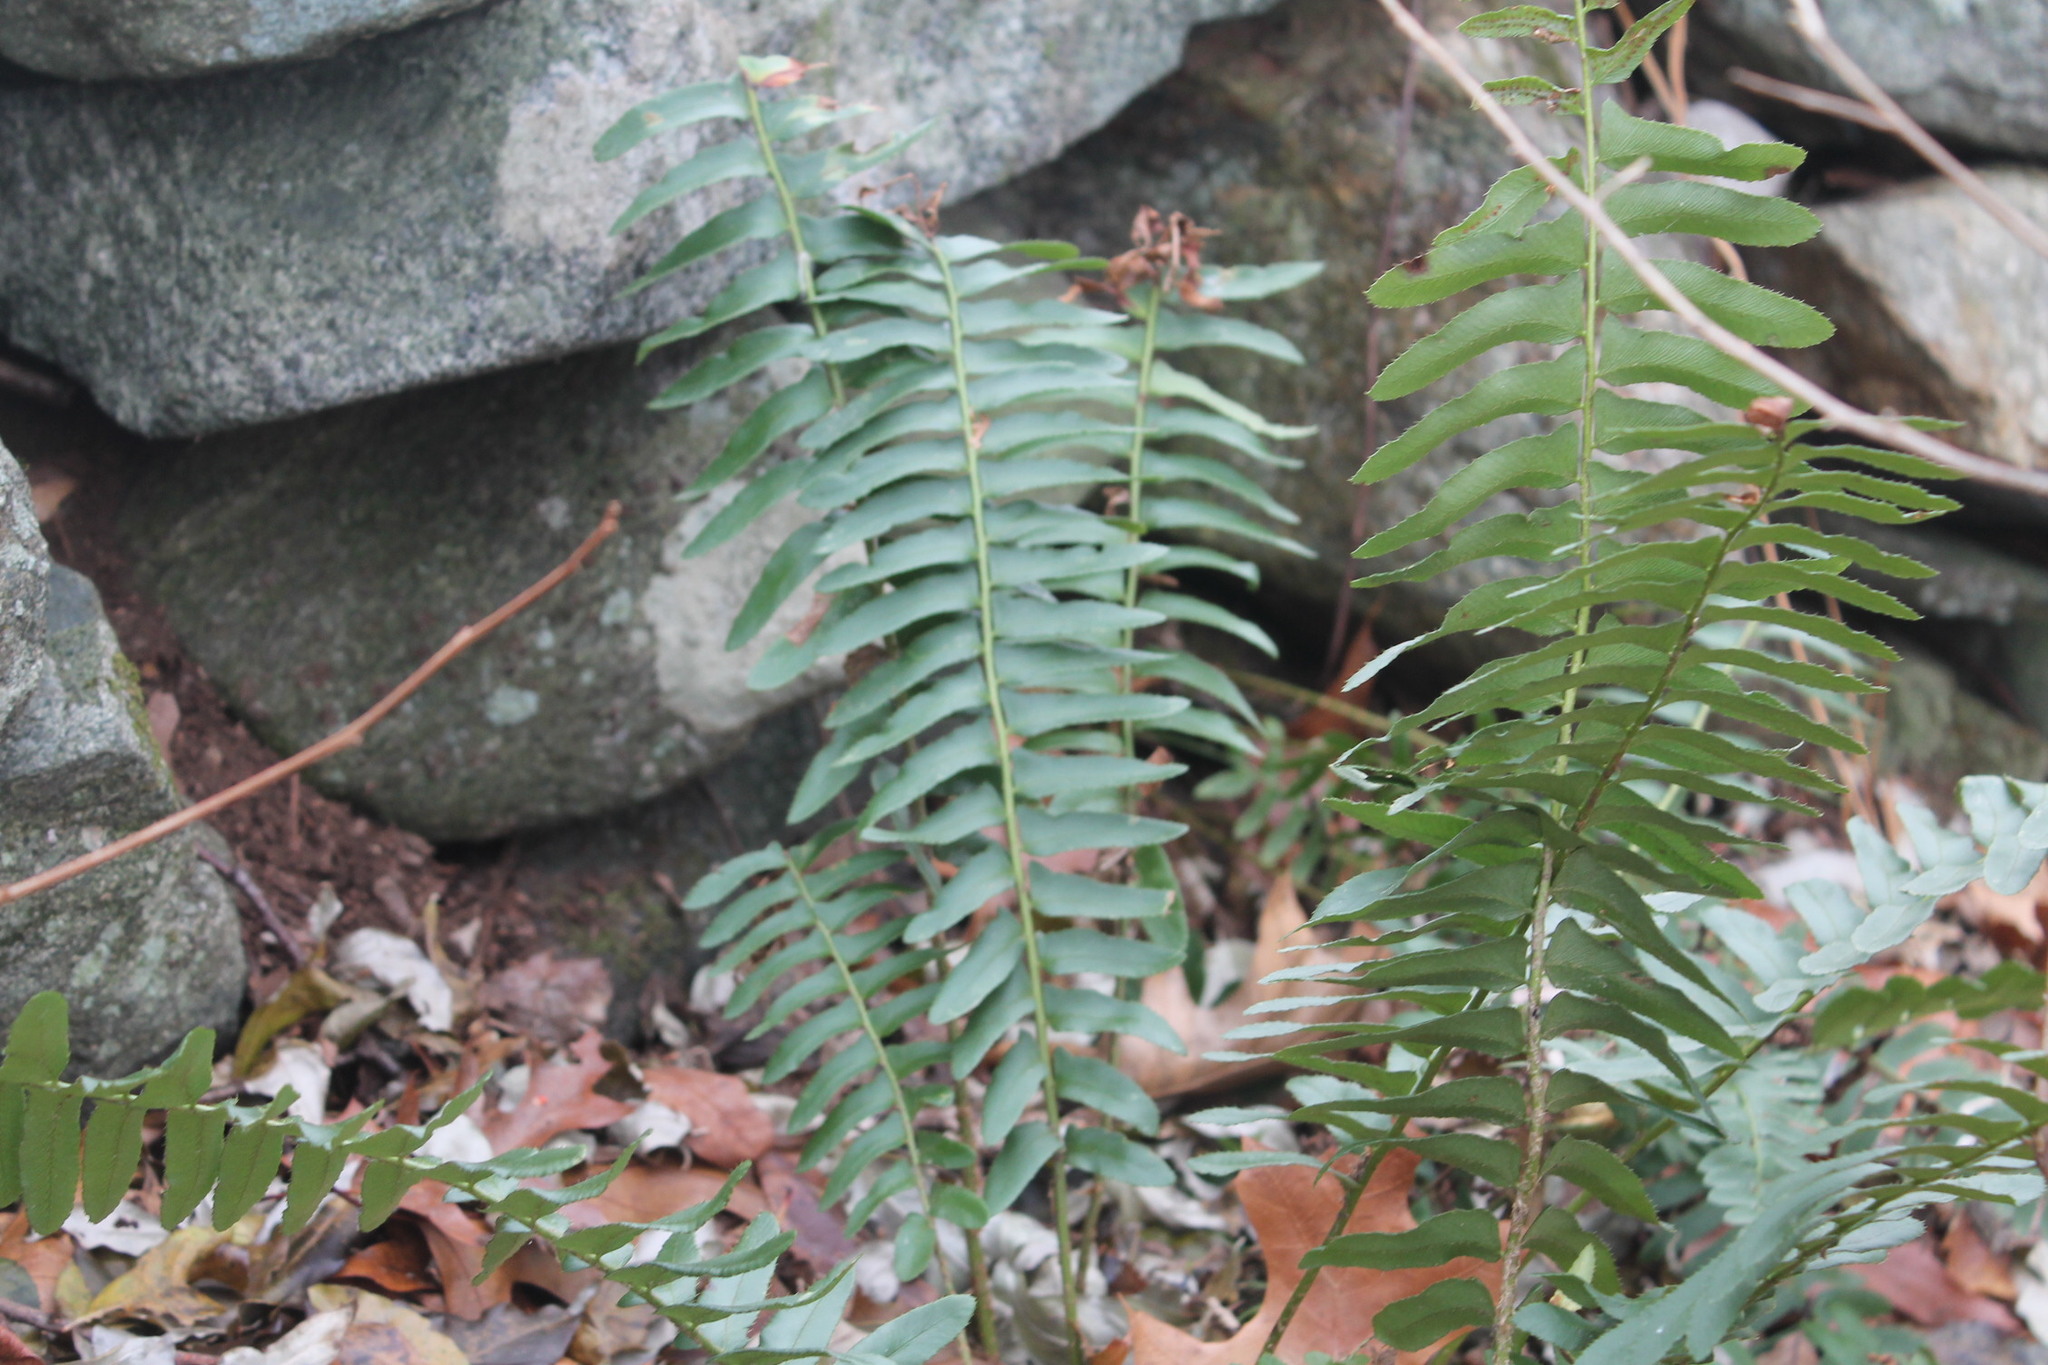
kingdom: Plantae
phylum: Tracheophyta
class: Polypodiopsida
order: Polypodiales
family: Dryopteridaceae
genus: Polystichum
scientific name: Polystichum acrostichoides
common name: Christmas fern
